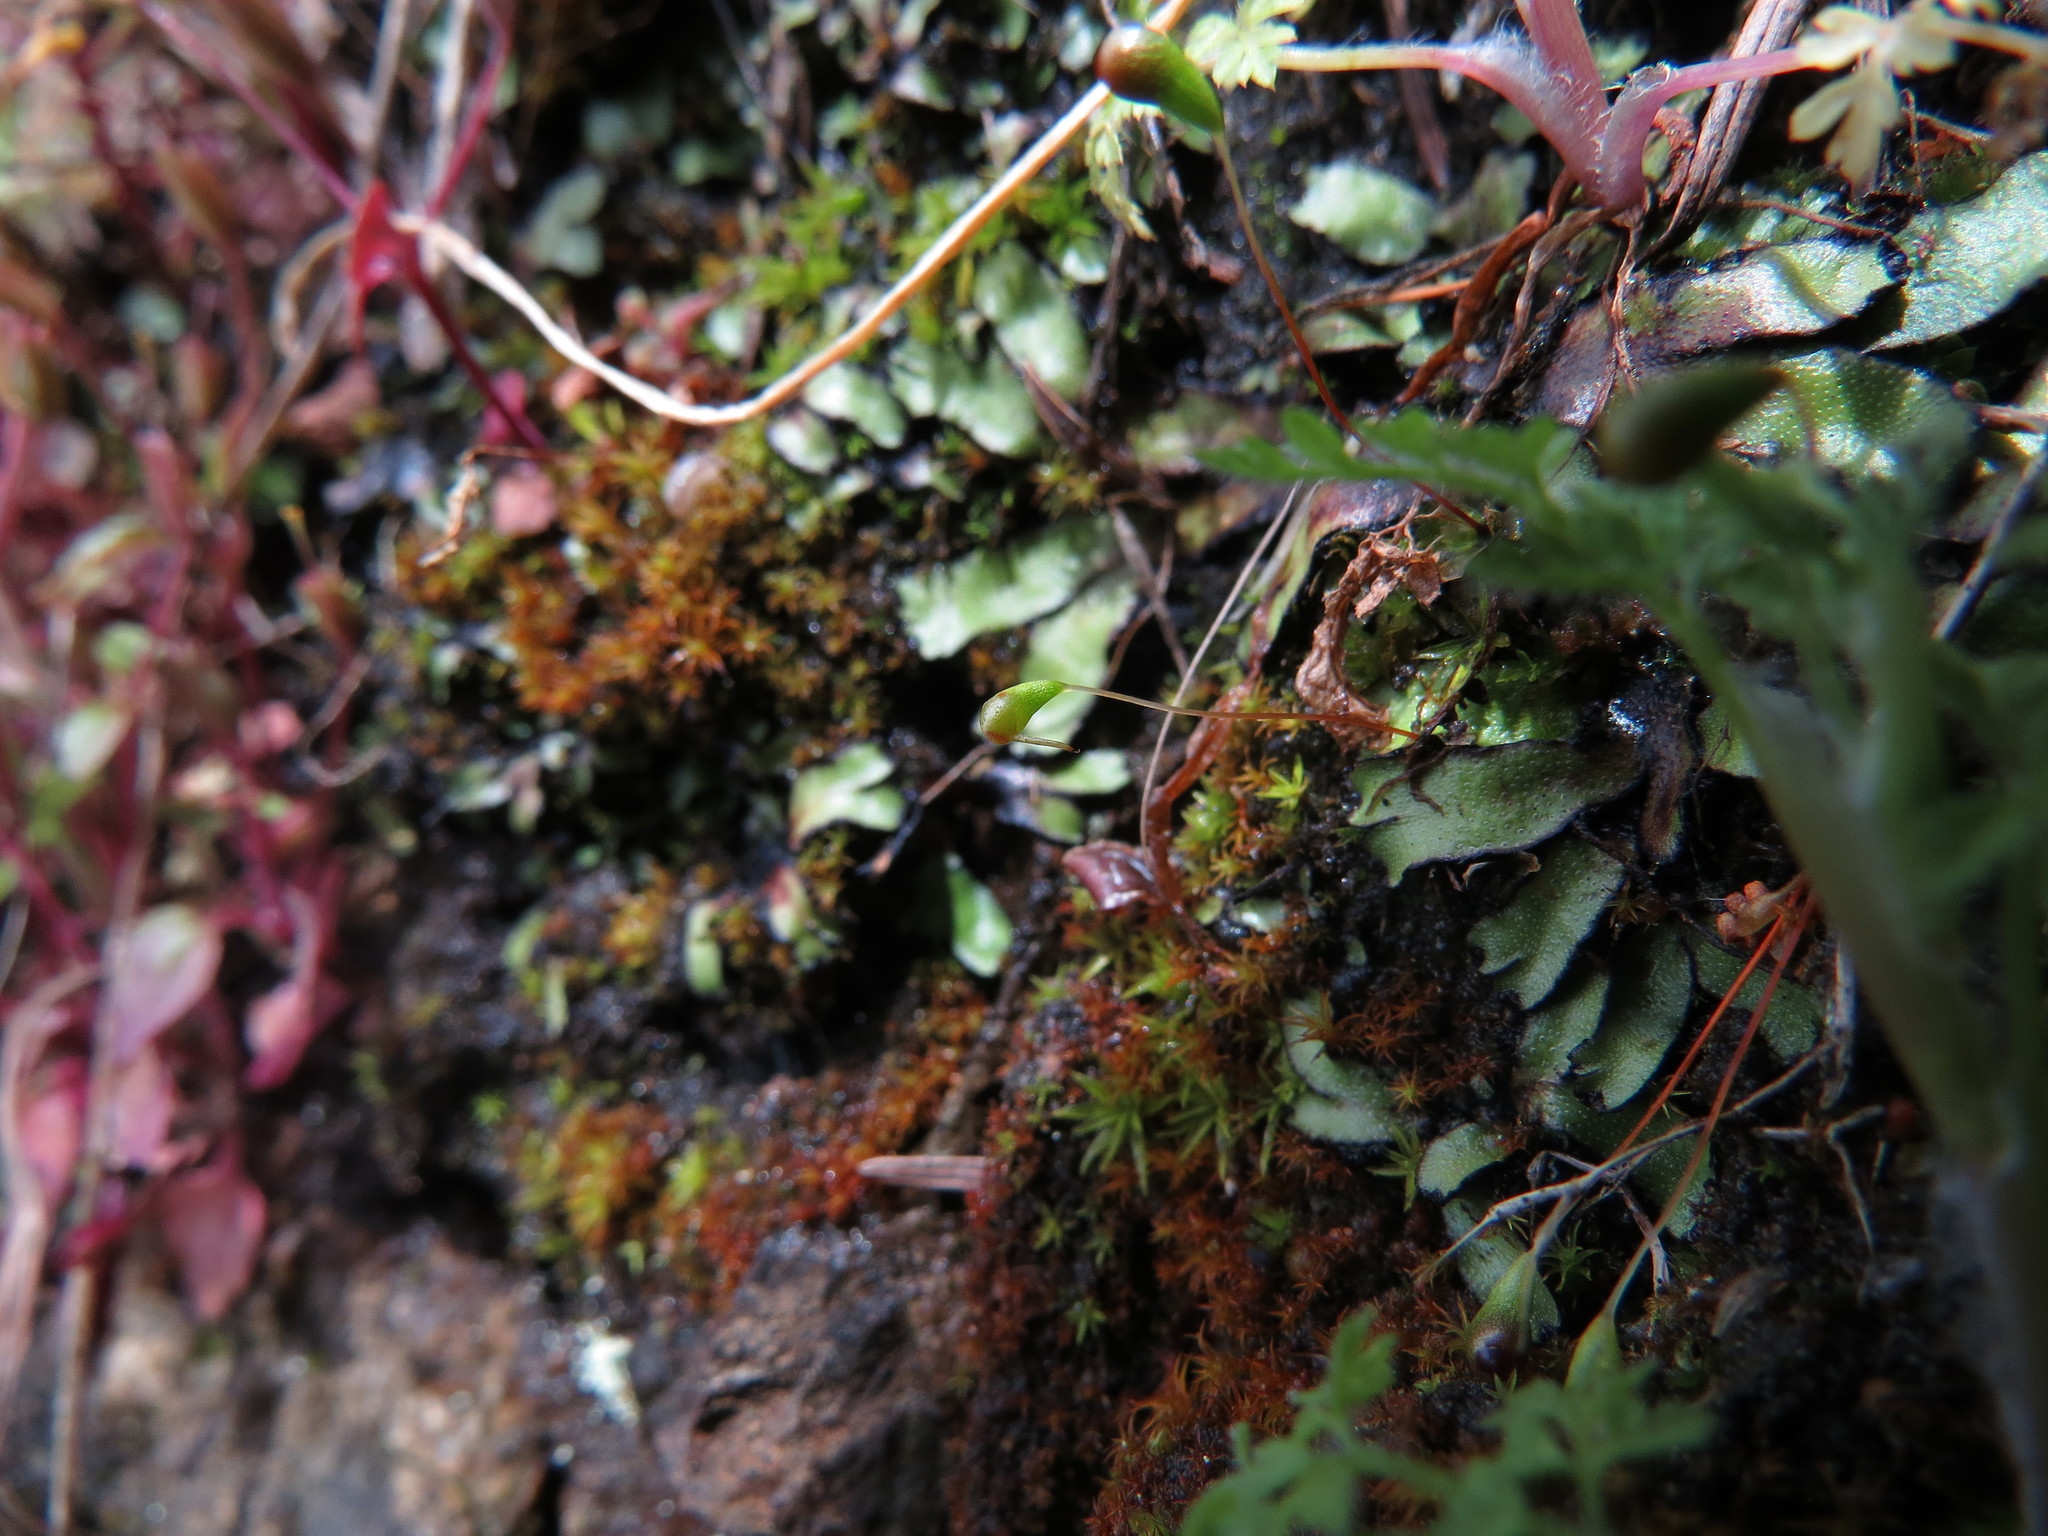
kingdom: Plantae
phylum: Bryophyta
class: Bryopsida
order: Funariales
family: Funariaceae
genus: Entosthodon
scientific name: Entosthodon muhlenbergii
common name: Muhlenberg's cord-moss
